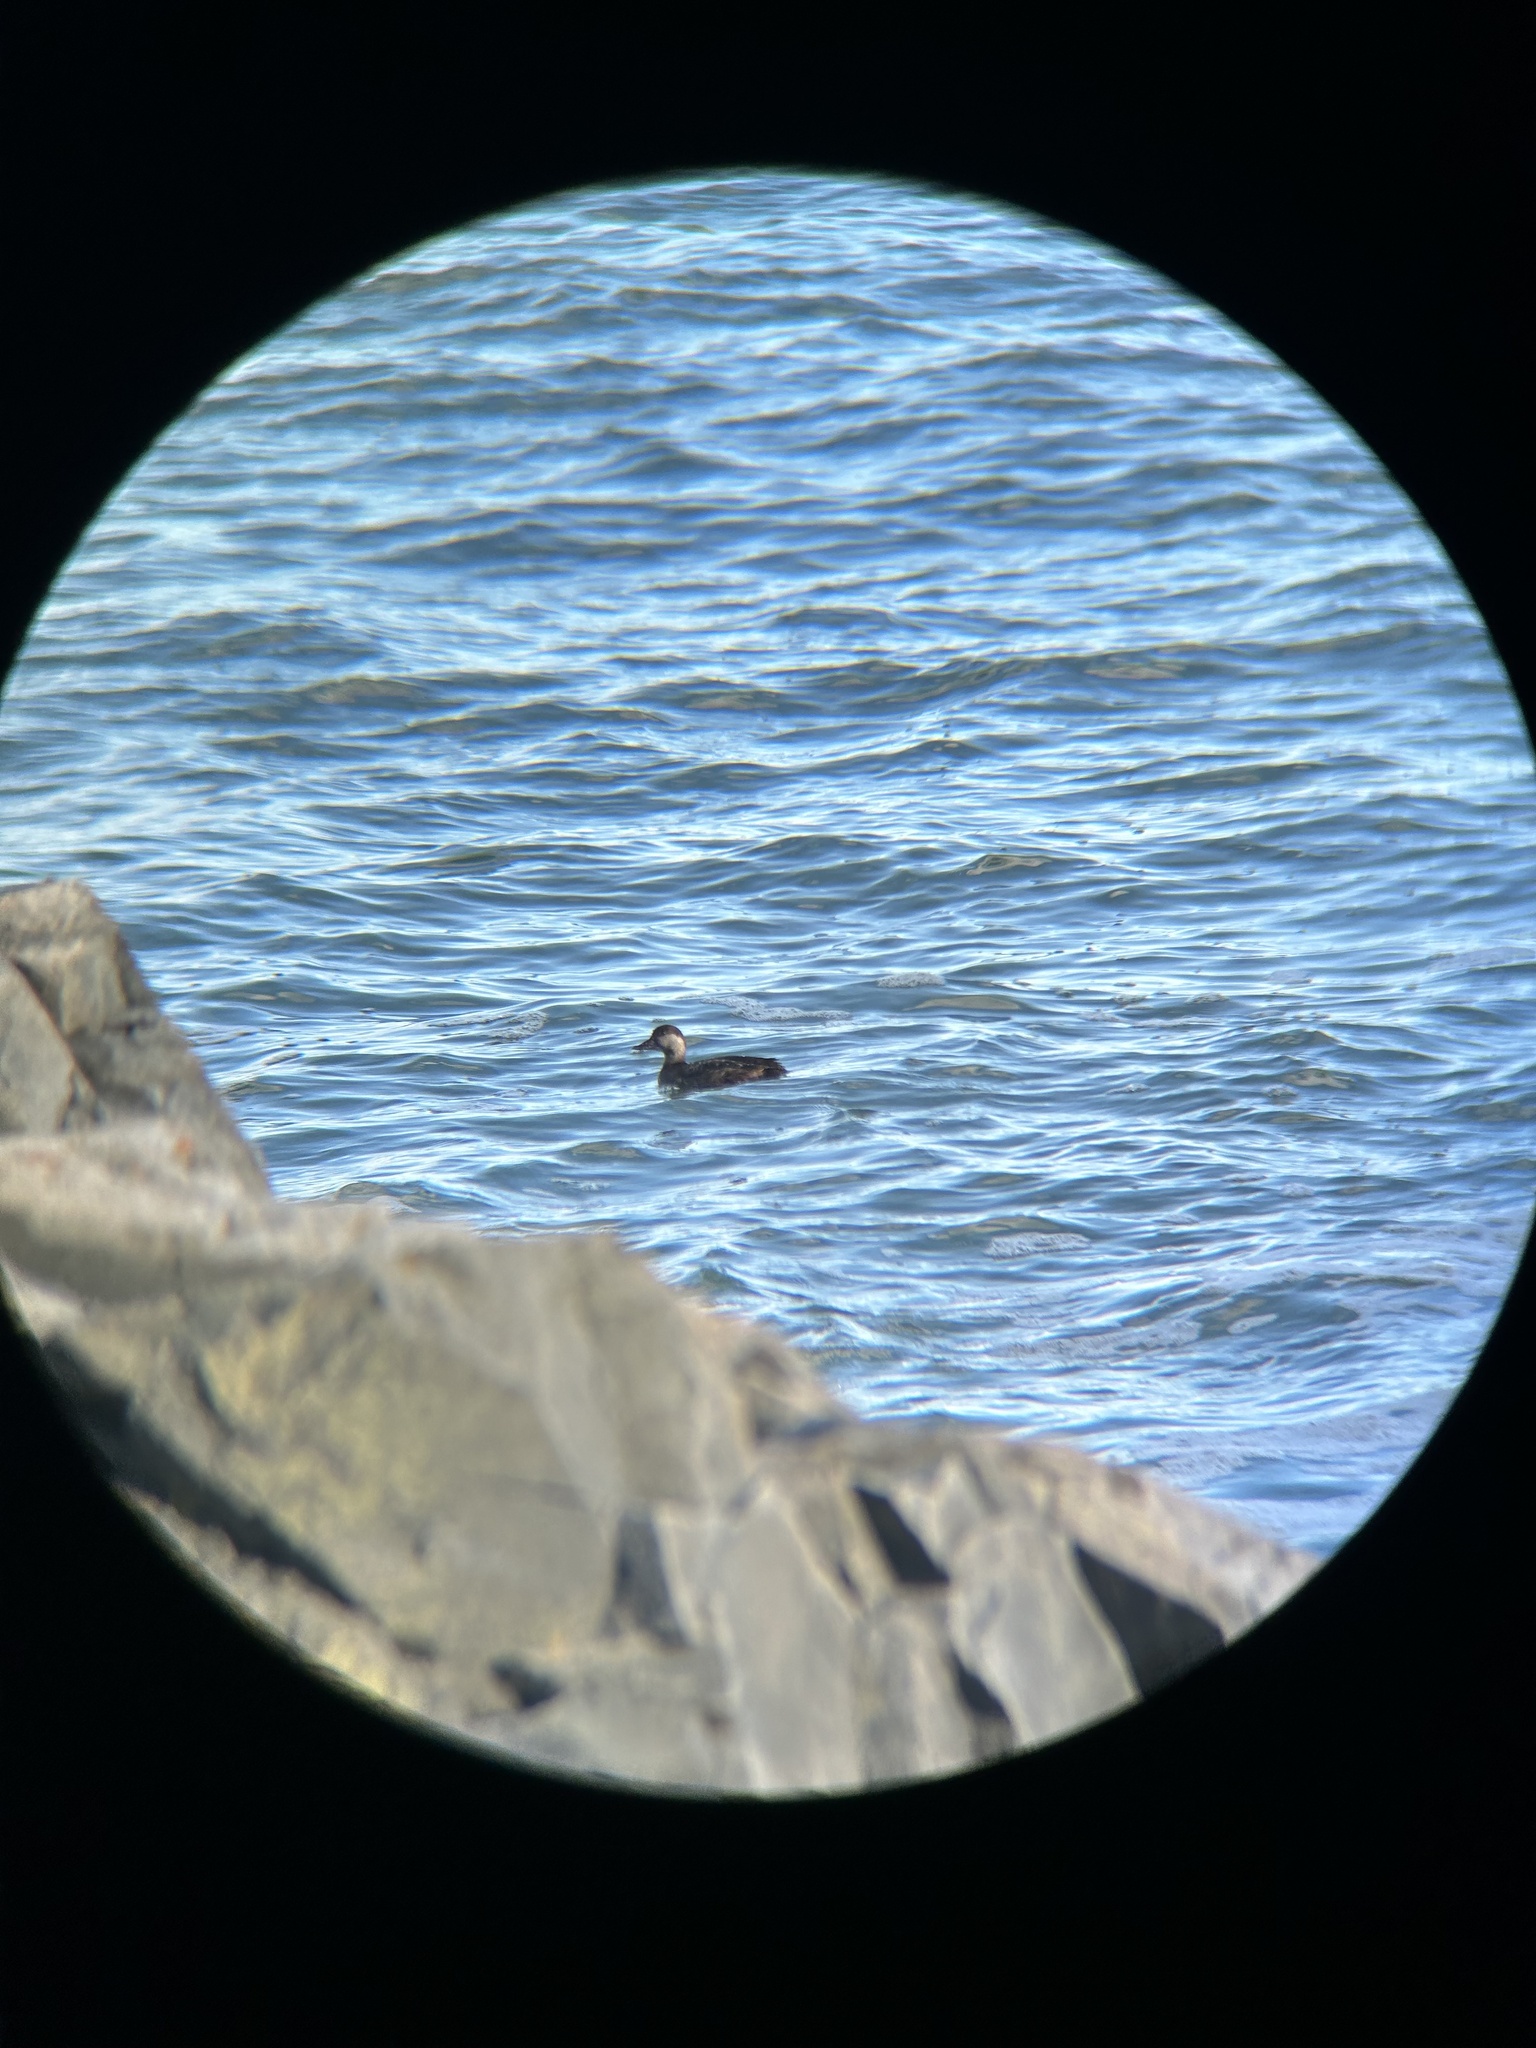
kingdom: Animalia
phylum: Chordata
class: Aves
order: Anseriformes
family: Anatidae
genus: Melanitta
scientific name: Melanitta americana
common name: Black scoter
